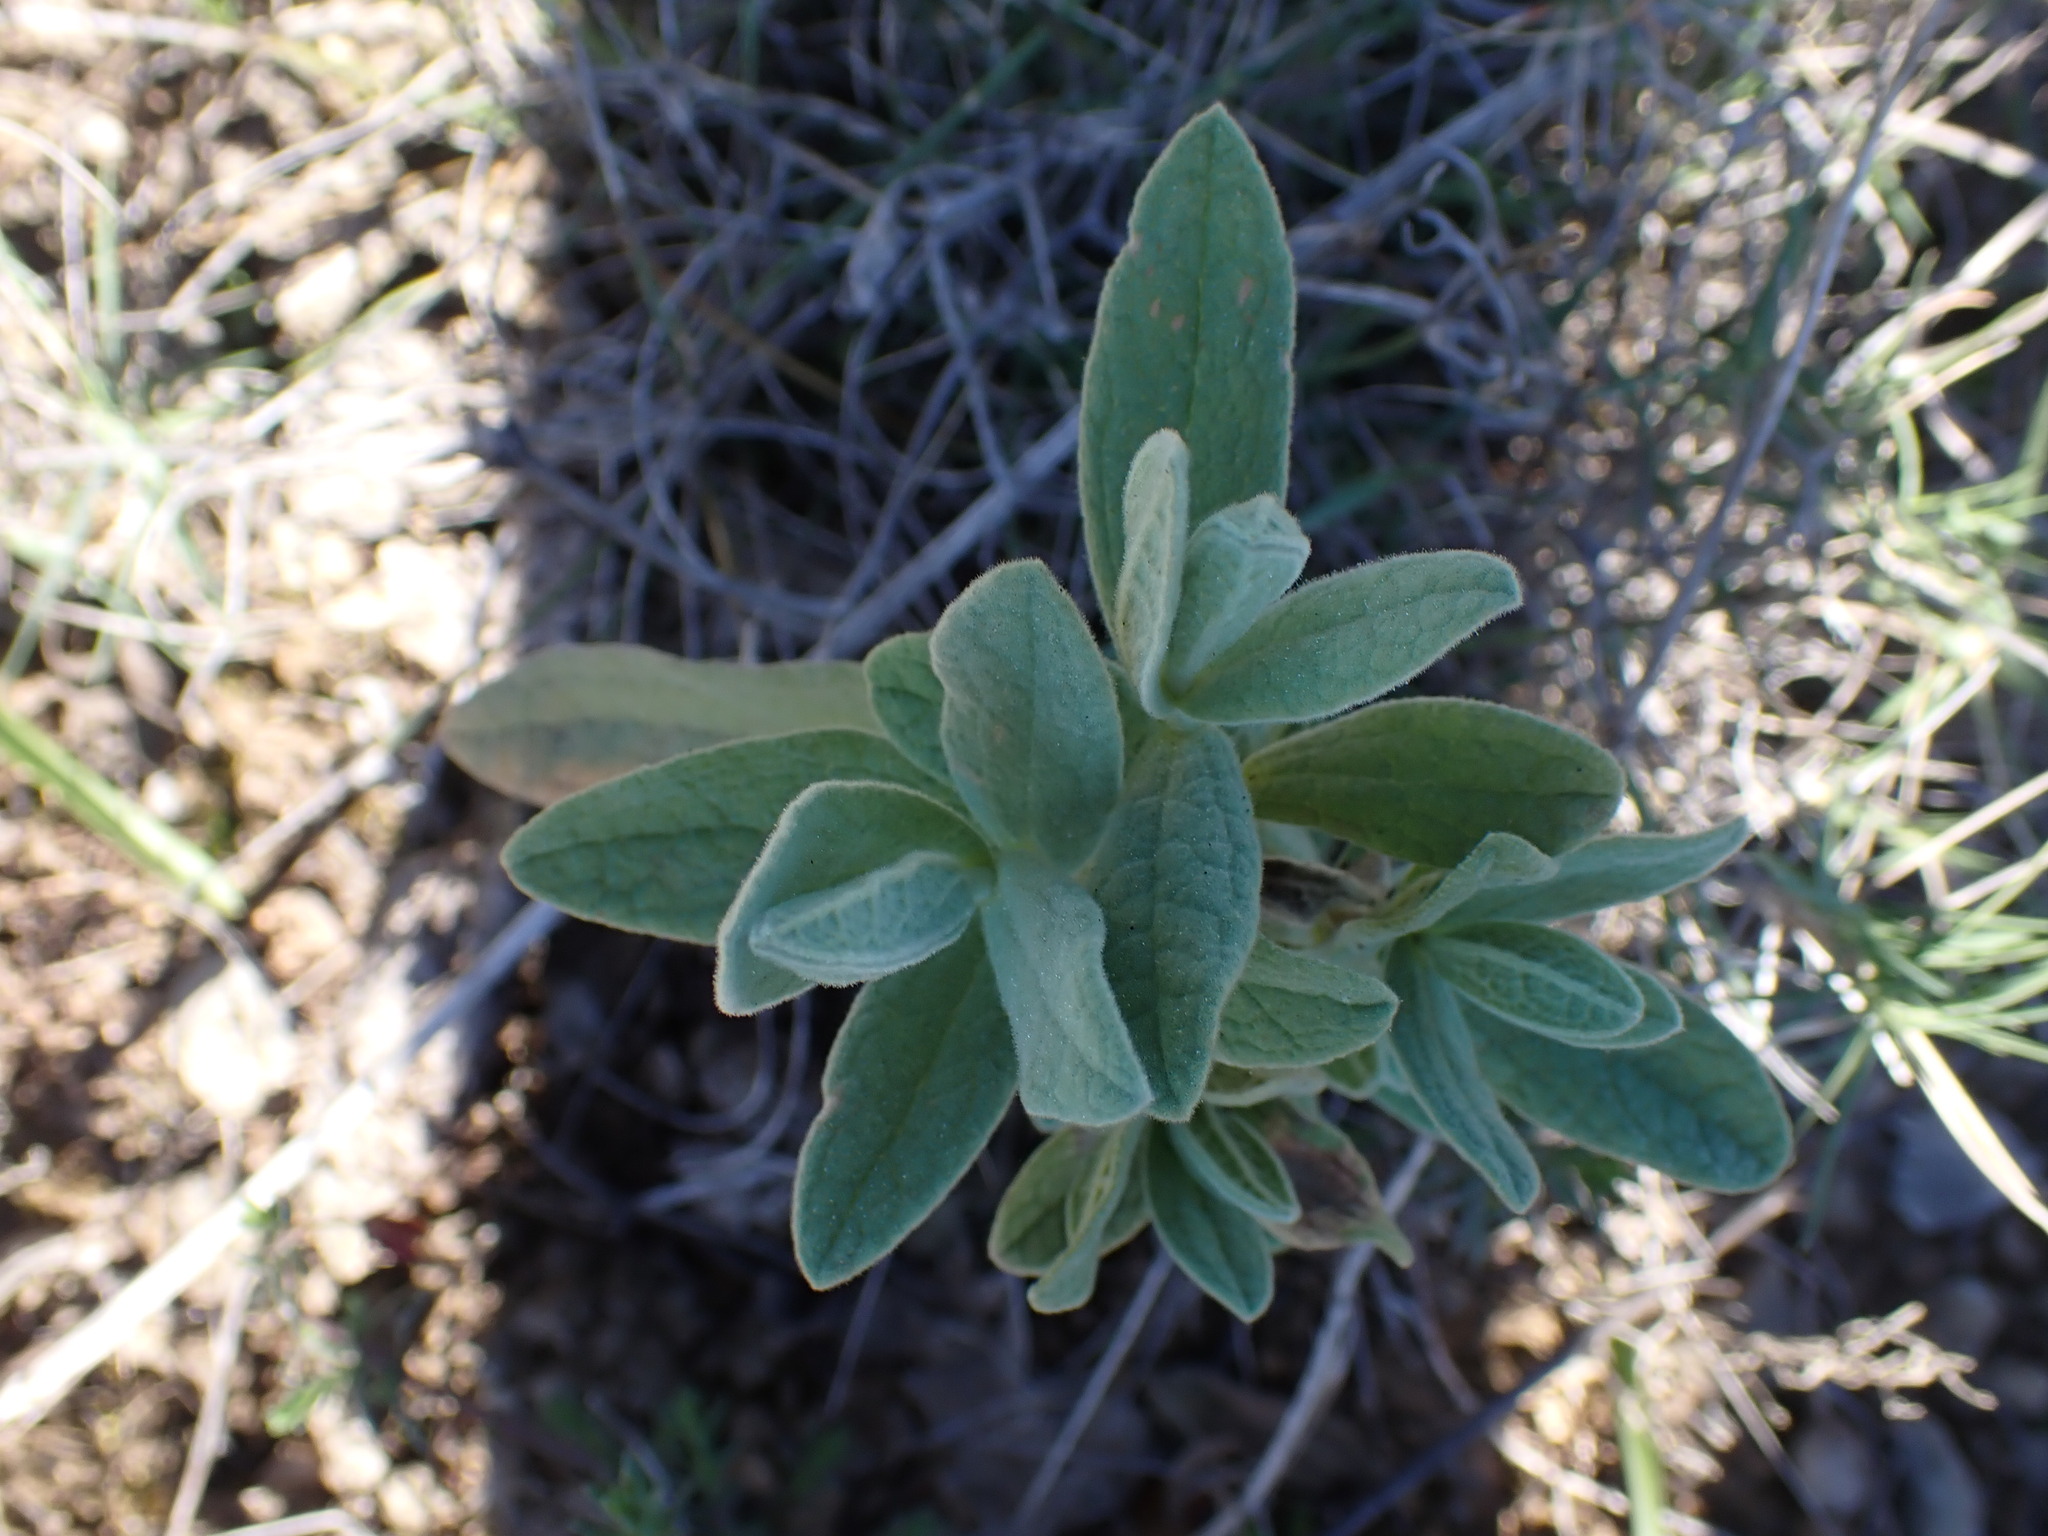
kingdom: Plantae
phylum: Tracheophyta
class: Magnoliopsida
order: Malvales
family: Cistaceae
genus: Cistus
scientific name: Cistus albidus
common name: White-leaf rock-rose
